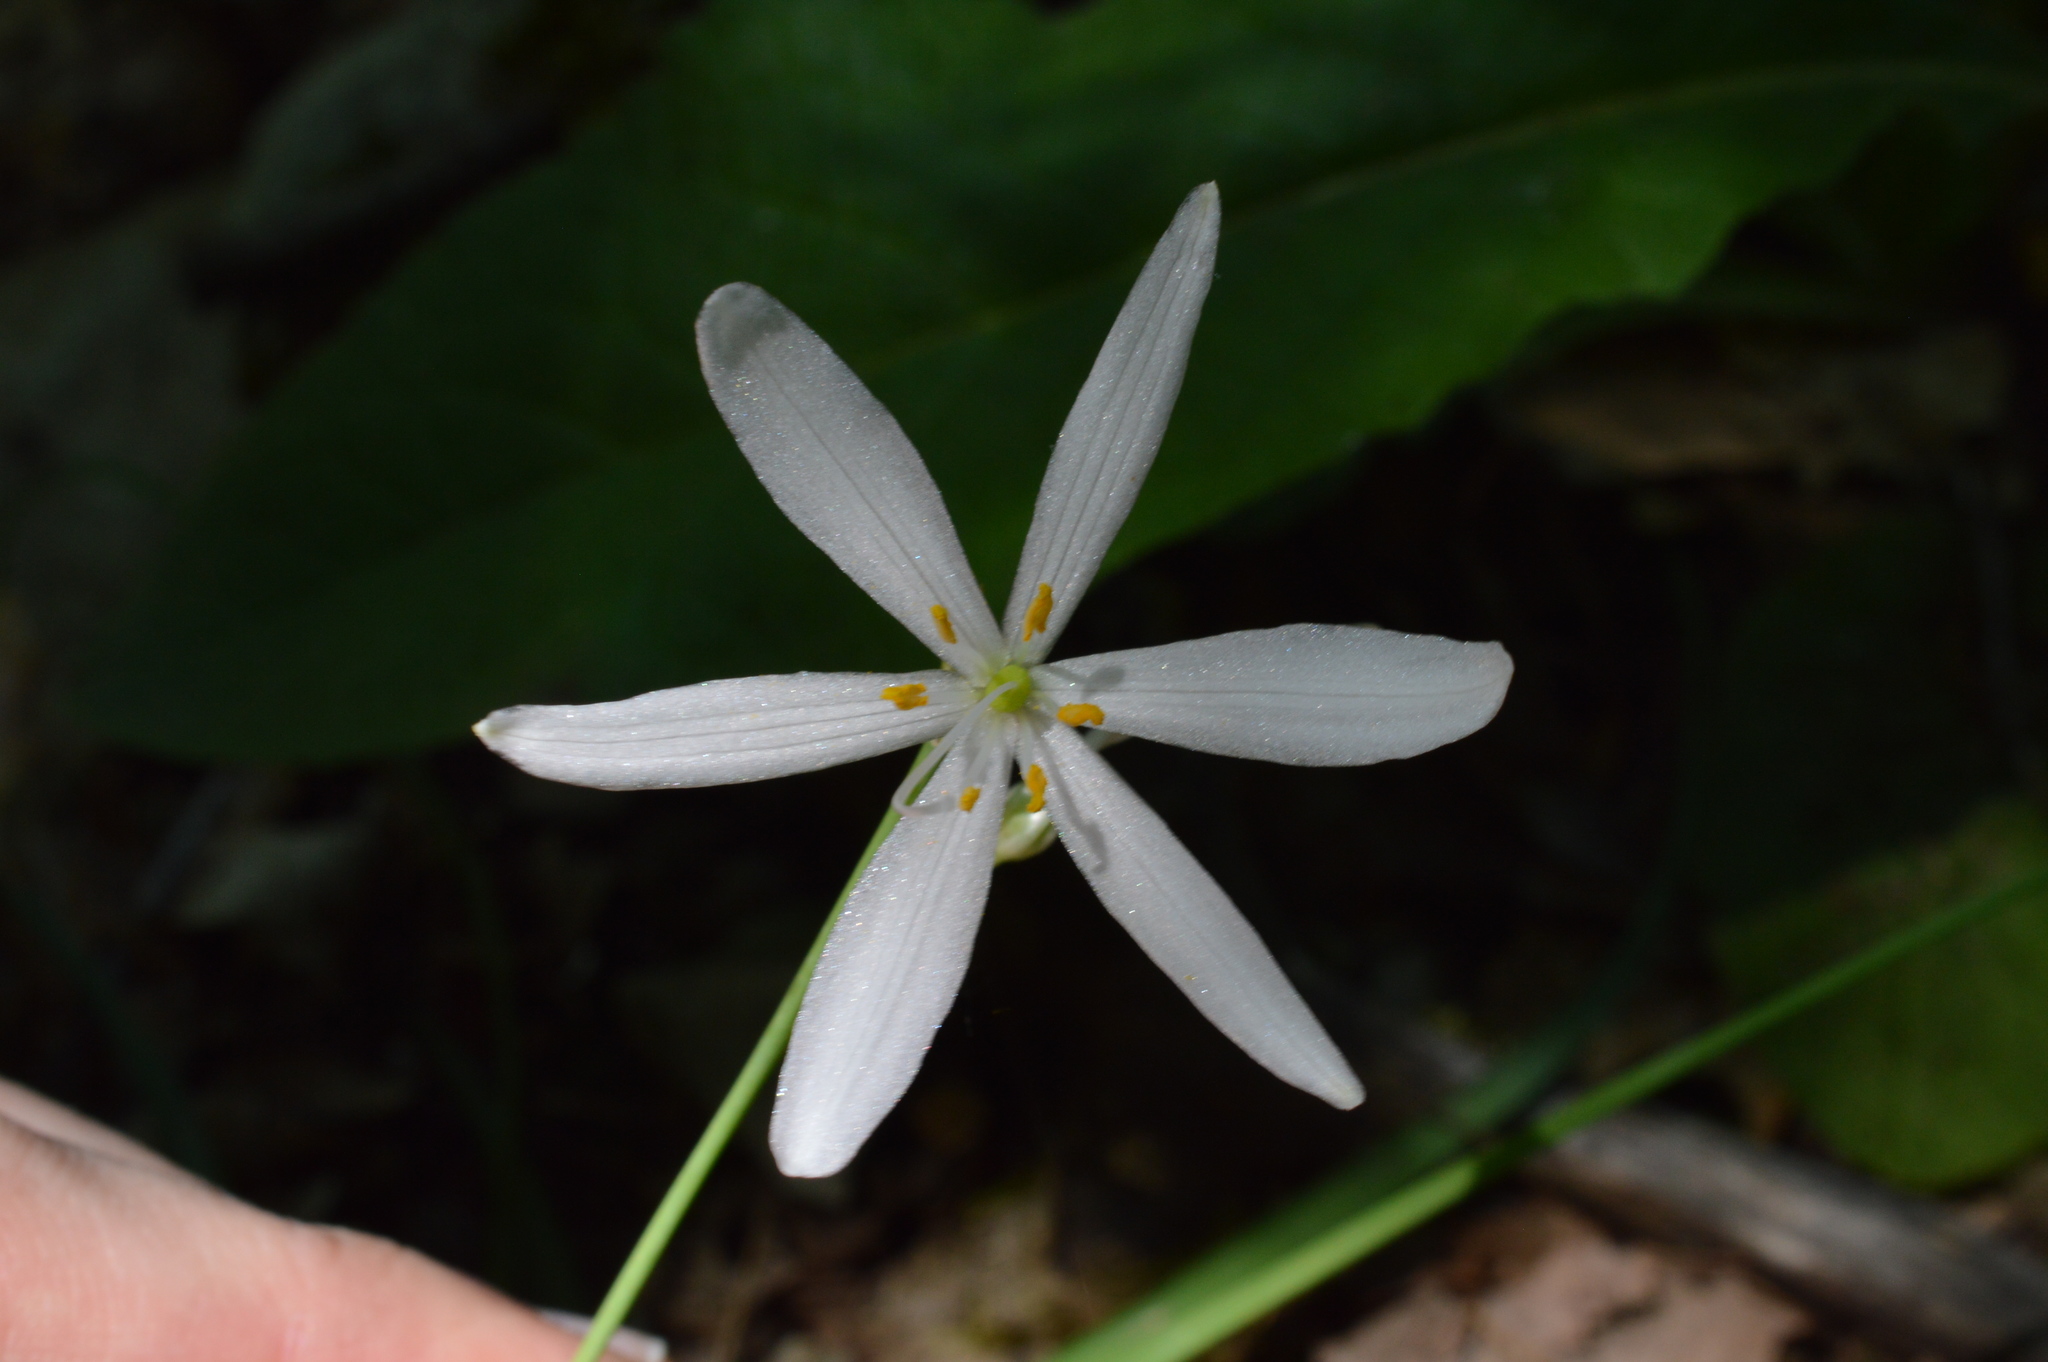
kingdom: Plantae
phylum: Tracheophyta
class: Liliopsida
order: Asparagales
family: Asparagaceae
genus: Anthericum
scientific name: Anthericum liliago
